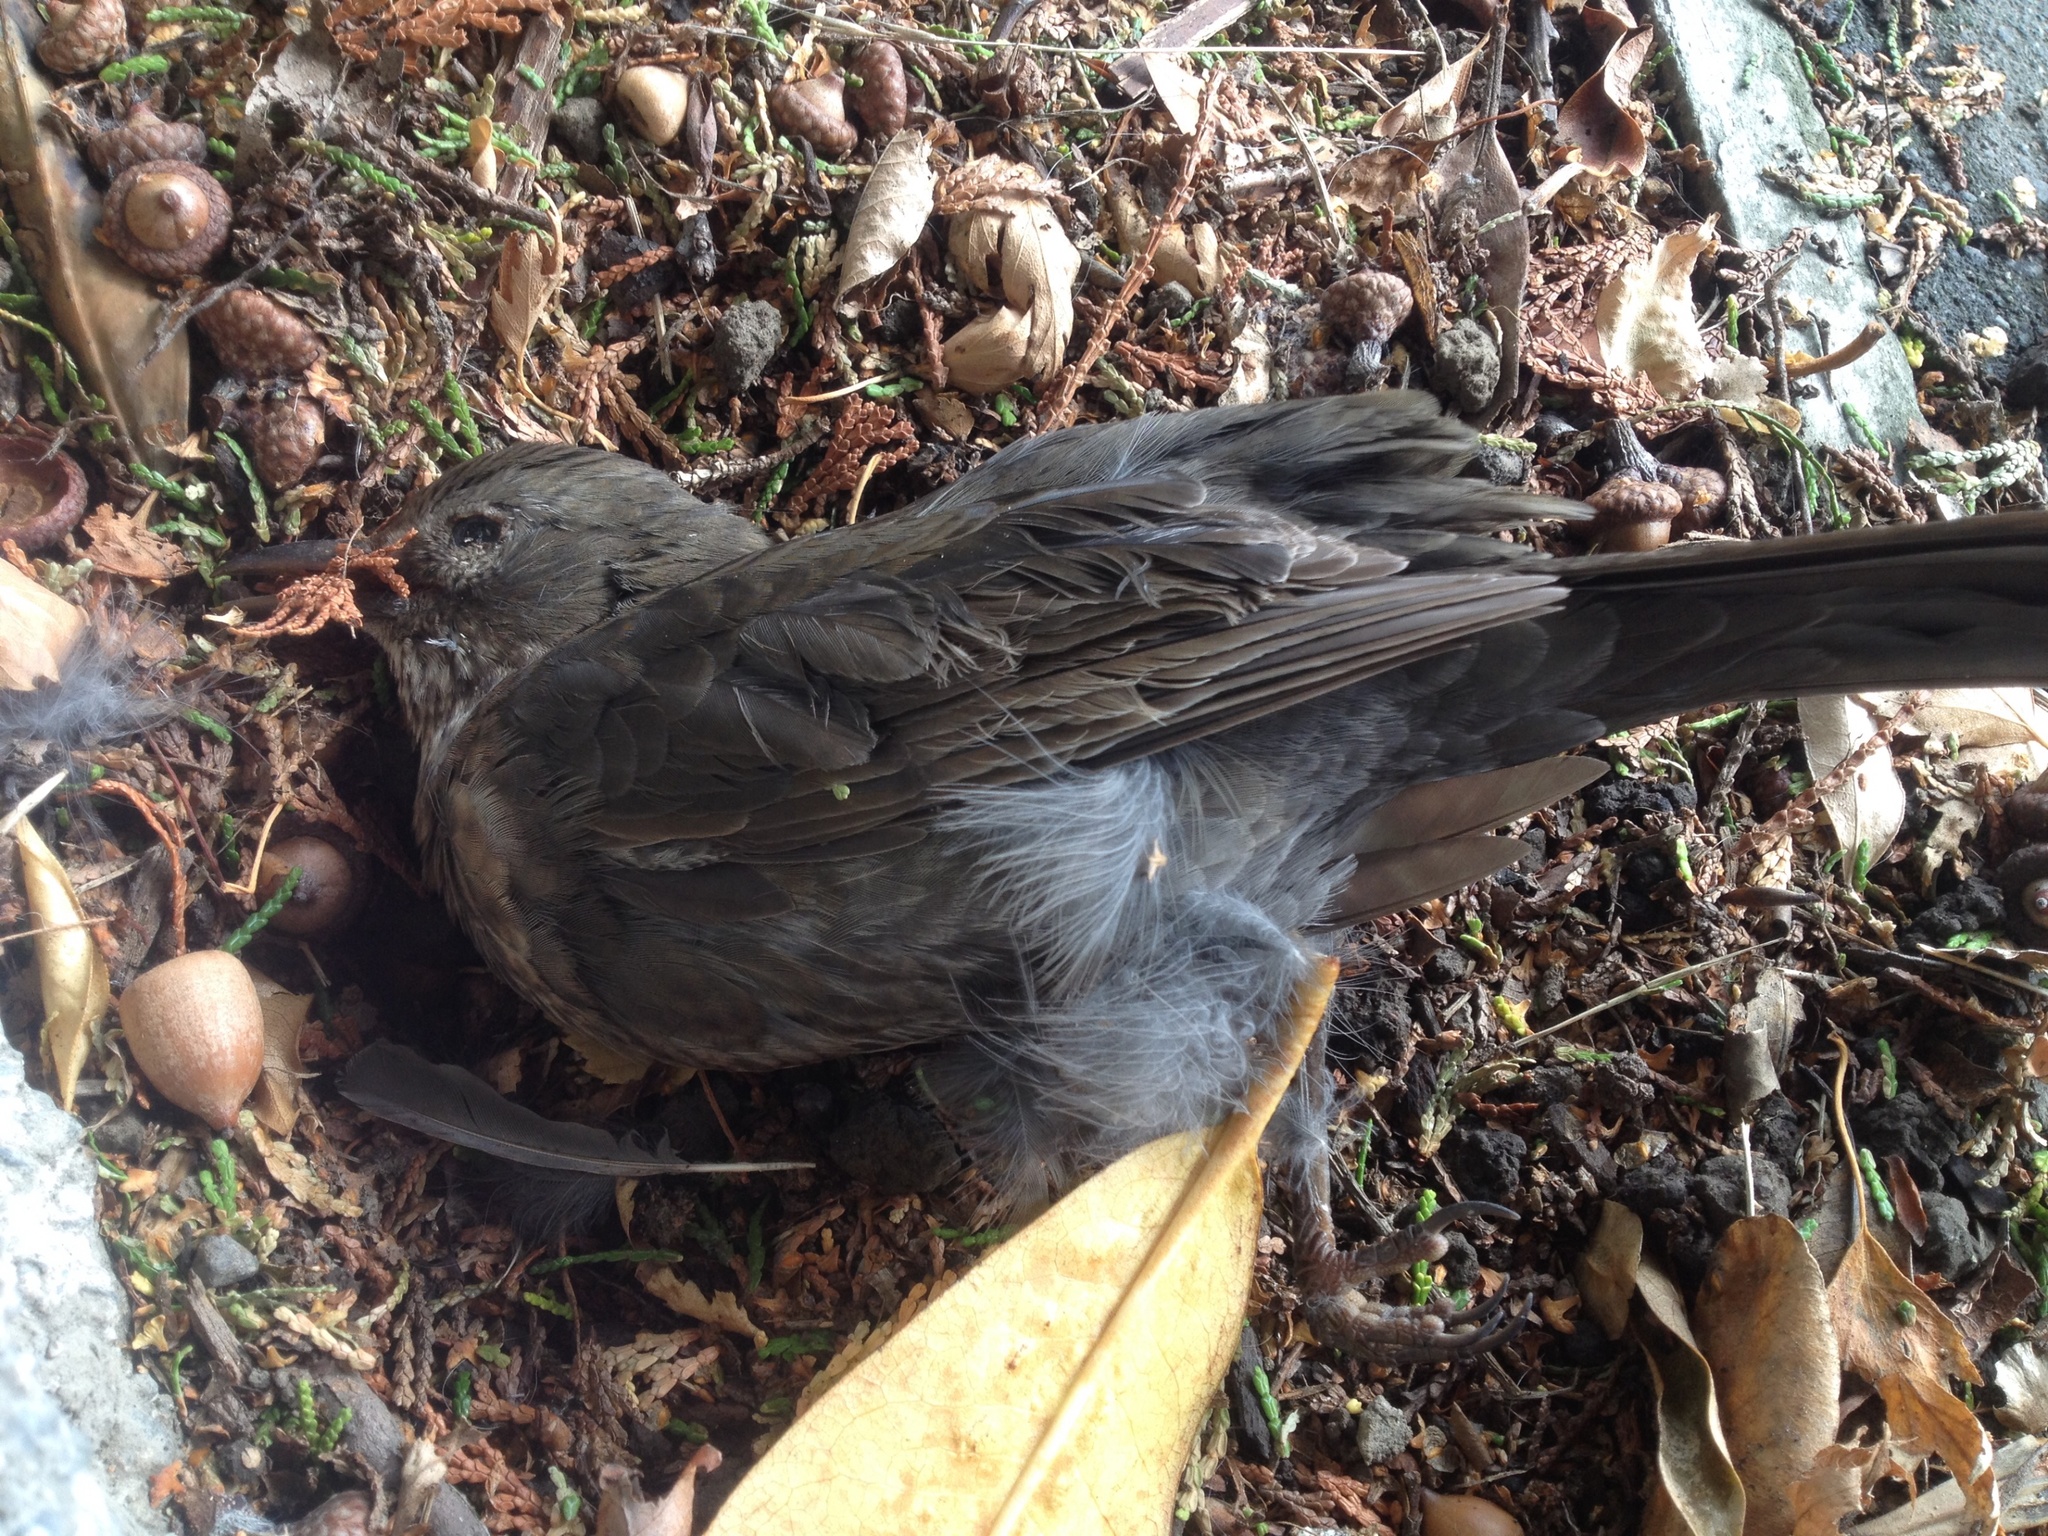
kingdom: Animalia
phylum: Chordata
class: Aves
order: Passeriformes
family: Turdidae
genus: Turdus
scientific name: Turdus merula
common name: Common blackbird
